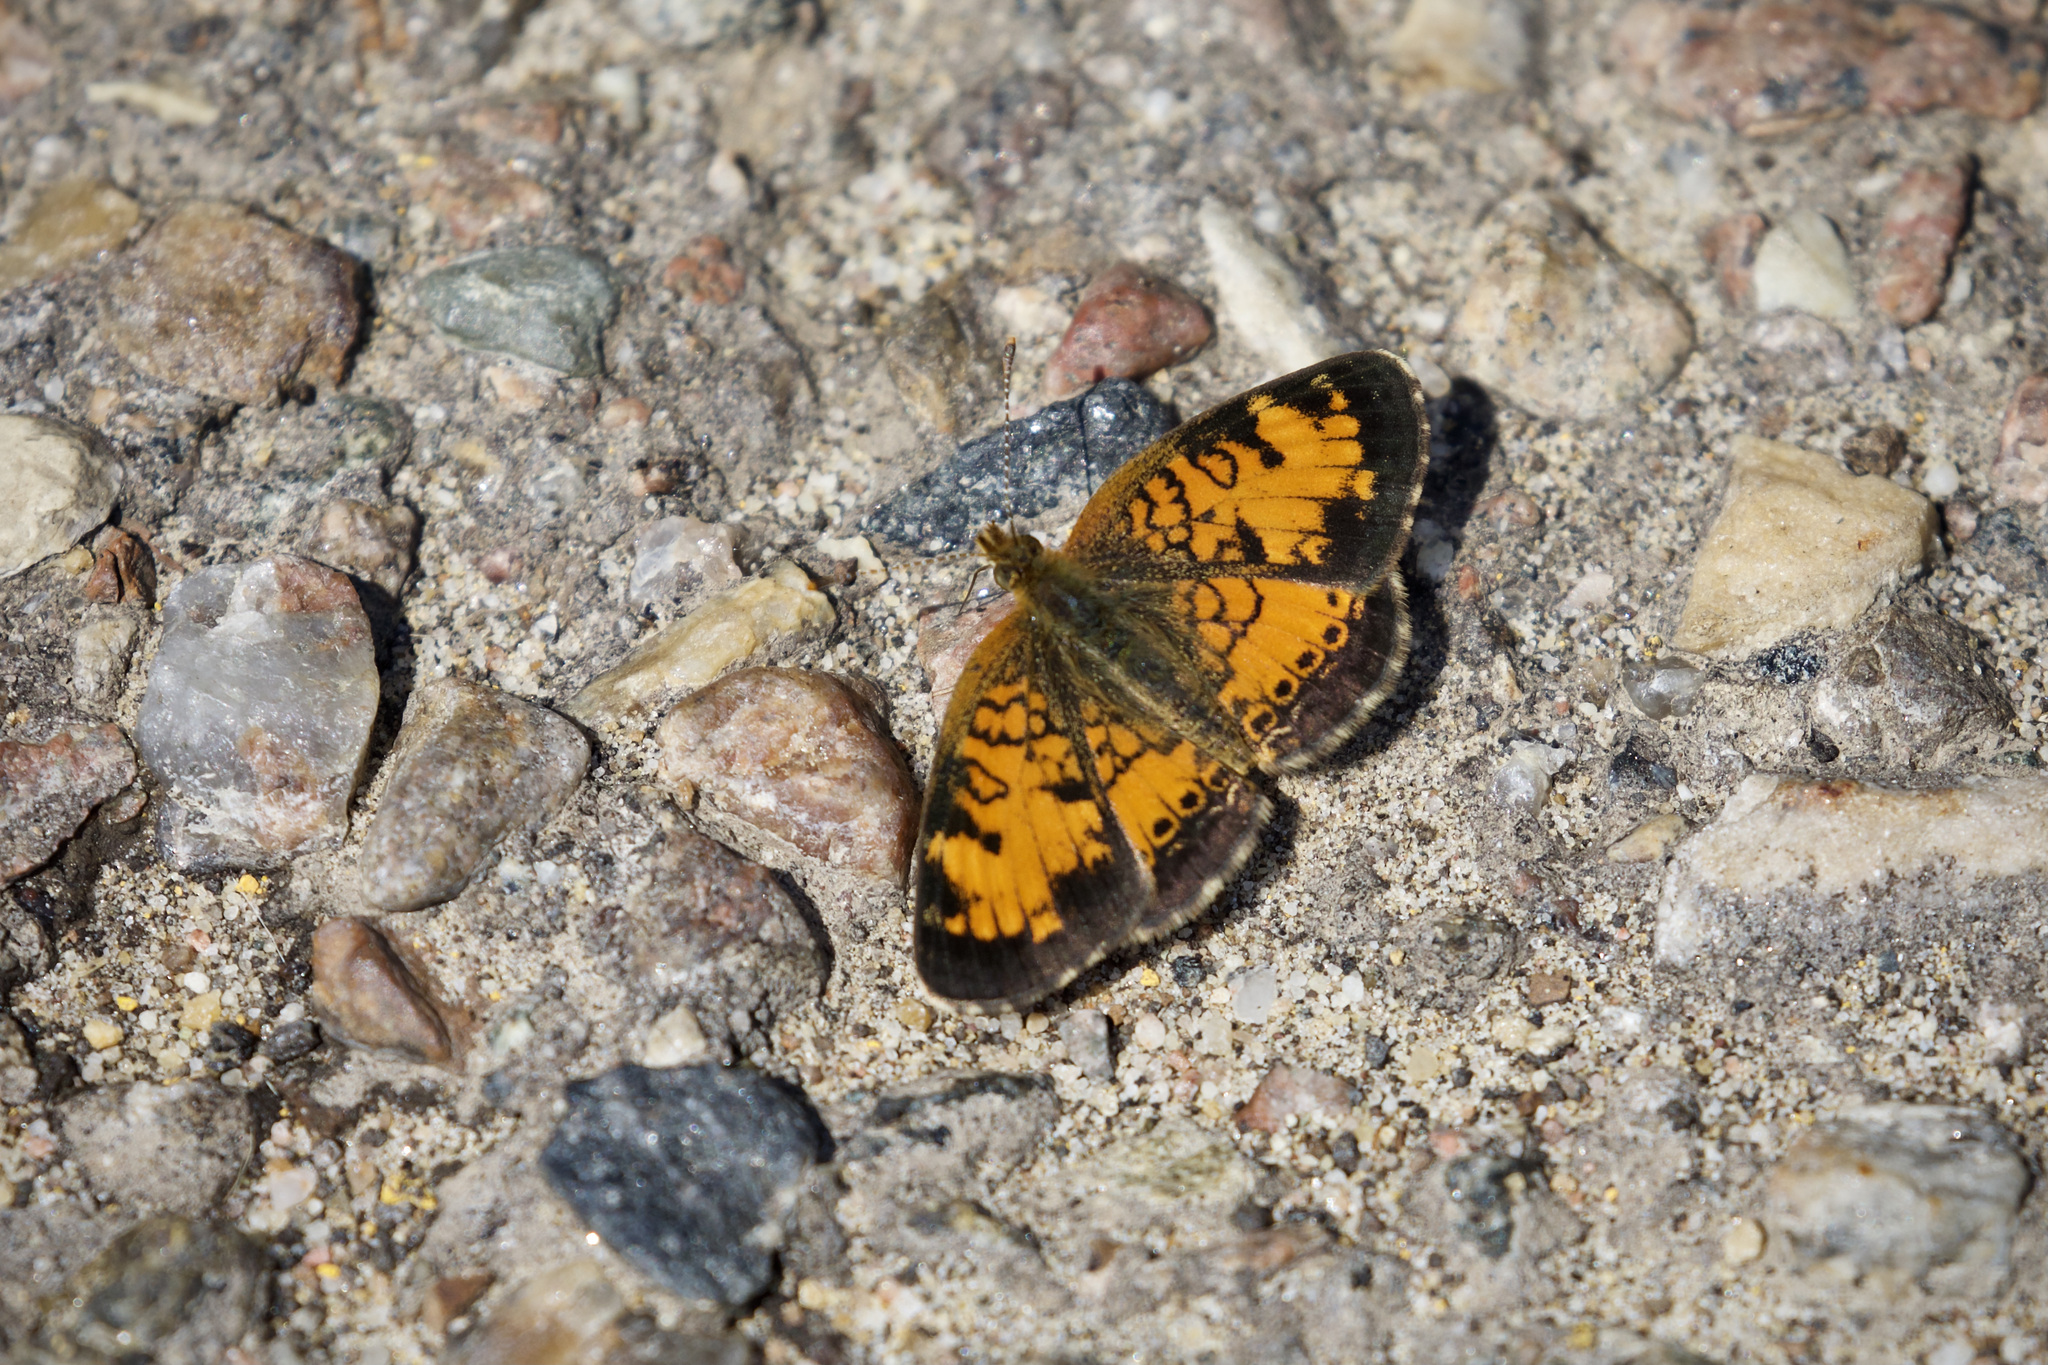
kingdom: Animalia
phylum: Arthropoda
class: Insecta
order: Lepidoptera
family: Nymphalidae
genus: Phyciodes
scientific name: Phyciodes tharos
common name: Pearl crescent
